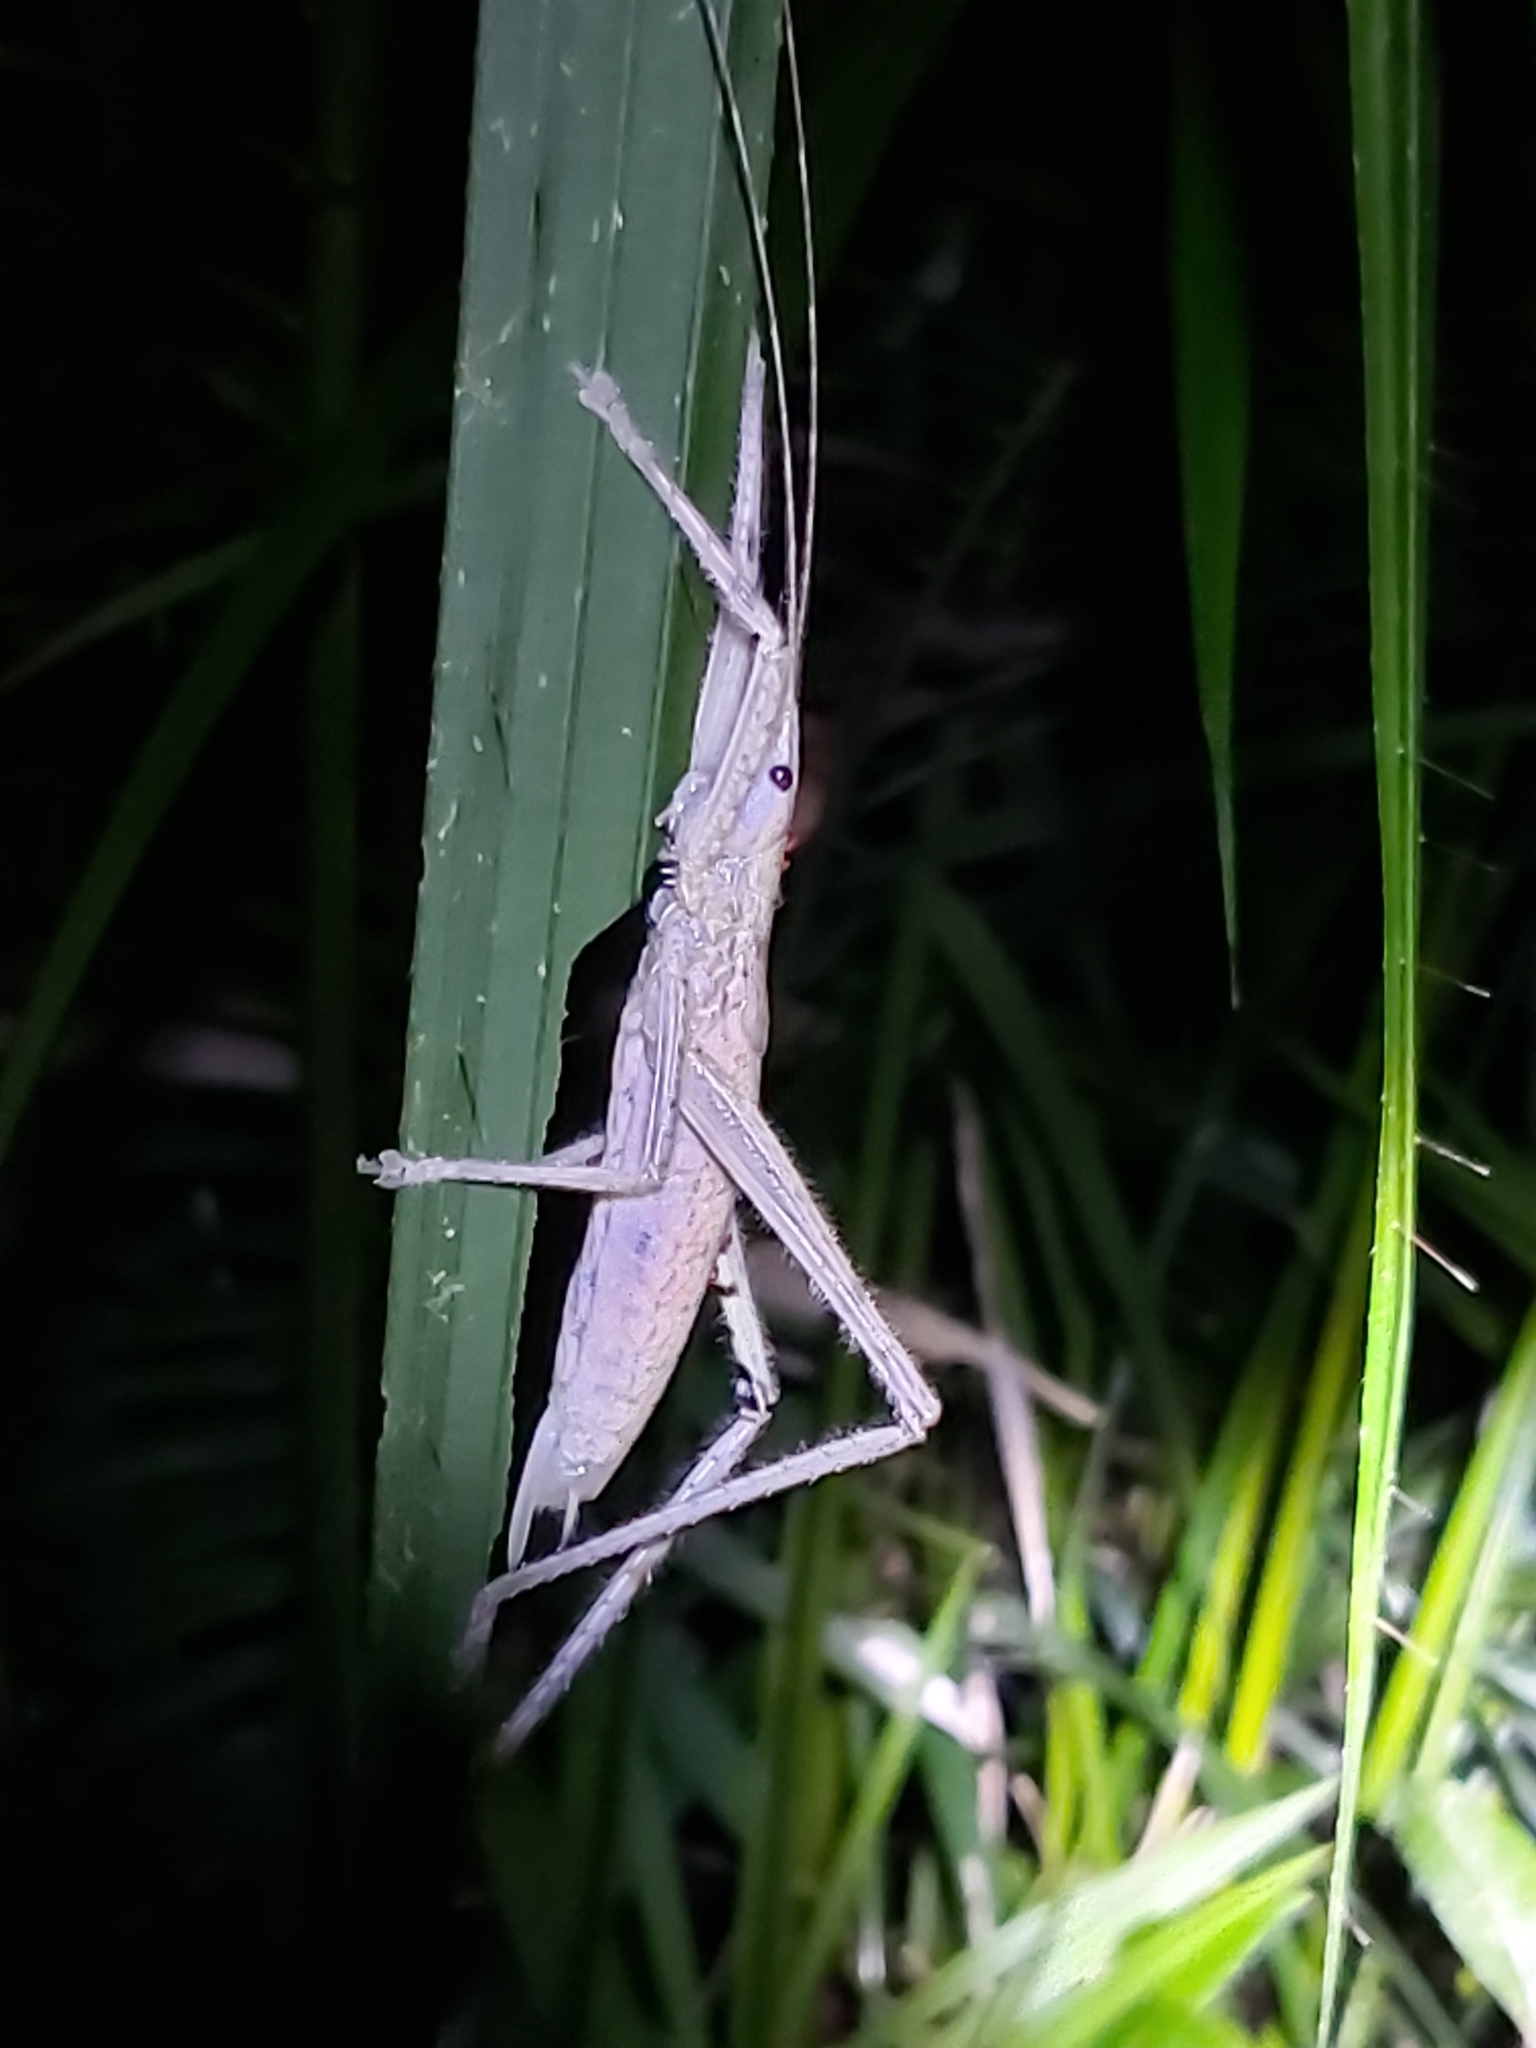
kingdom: Animalia
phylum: Arthropoda
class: Insecta
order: Orthoptera
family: Tettigoniidae
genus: Segestidea
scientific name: Segestidea queenslandica
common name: Queensland palm katydid
